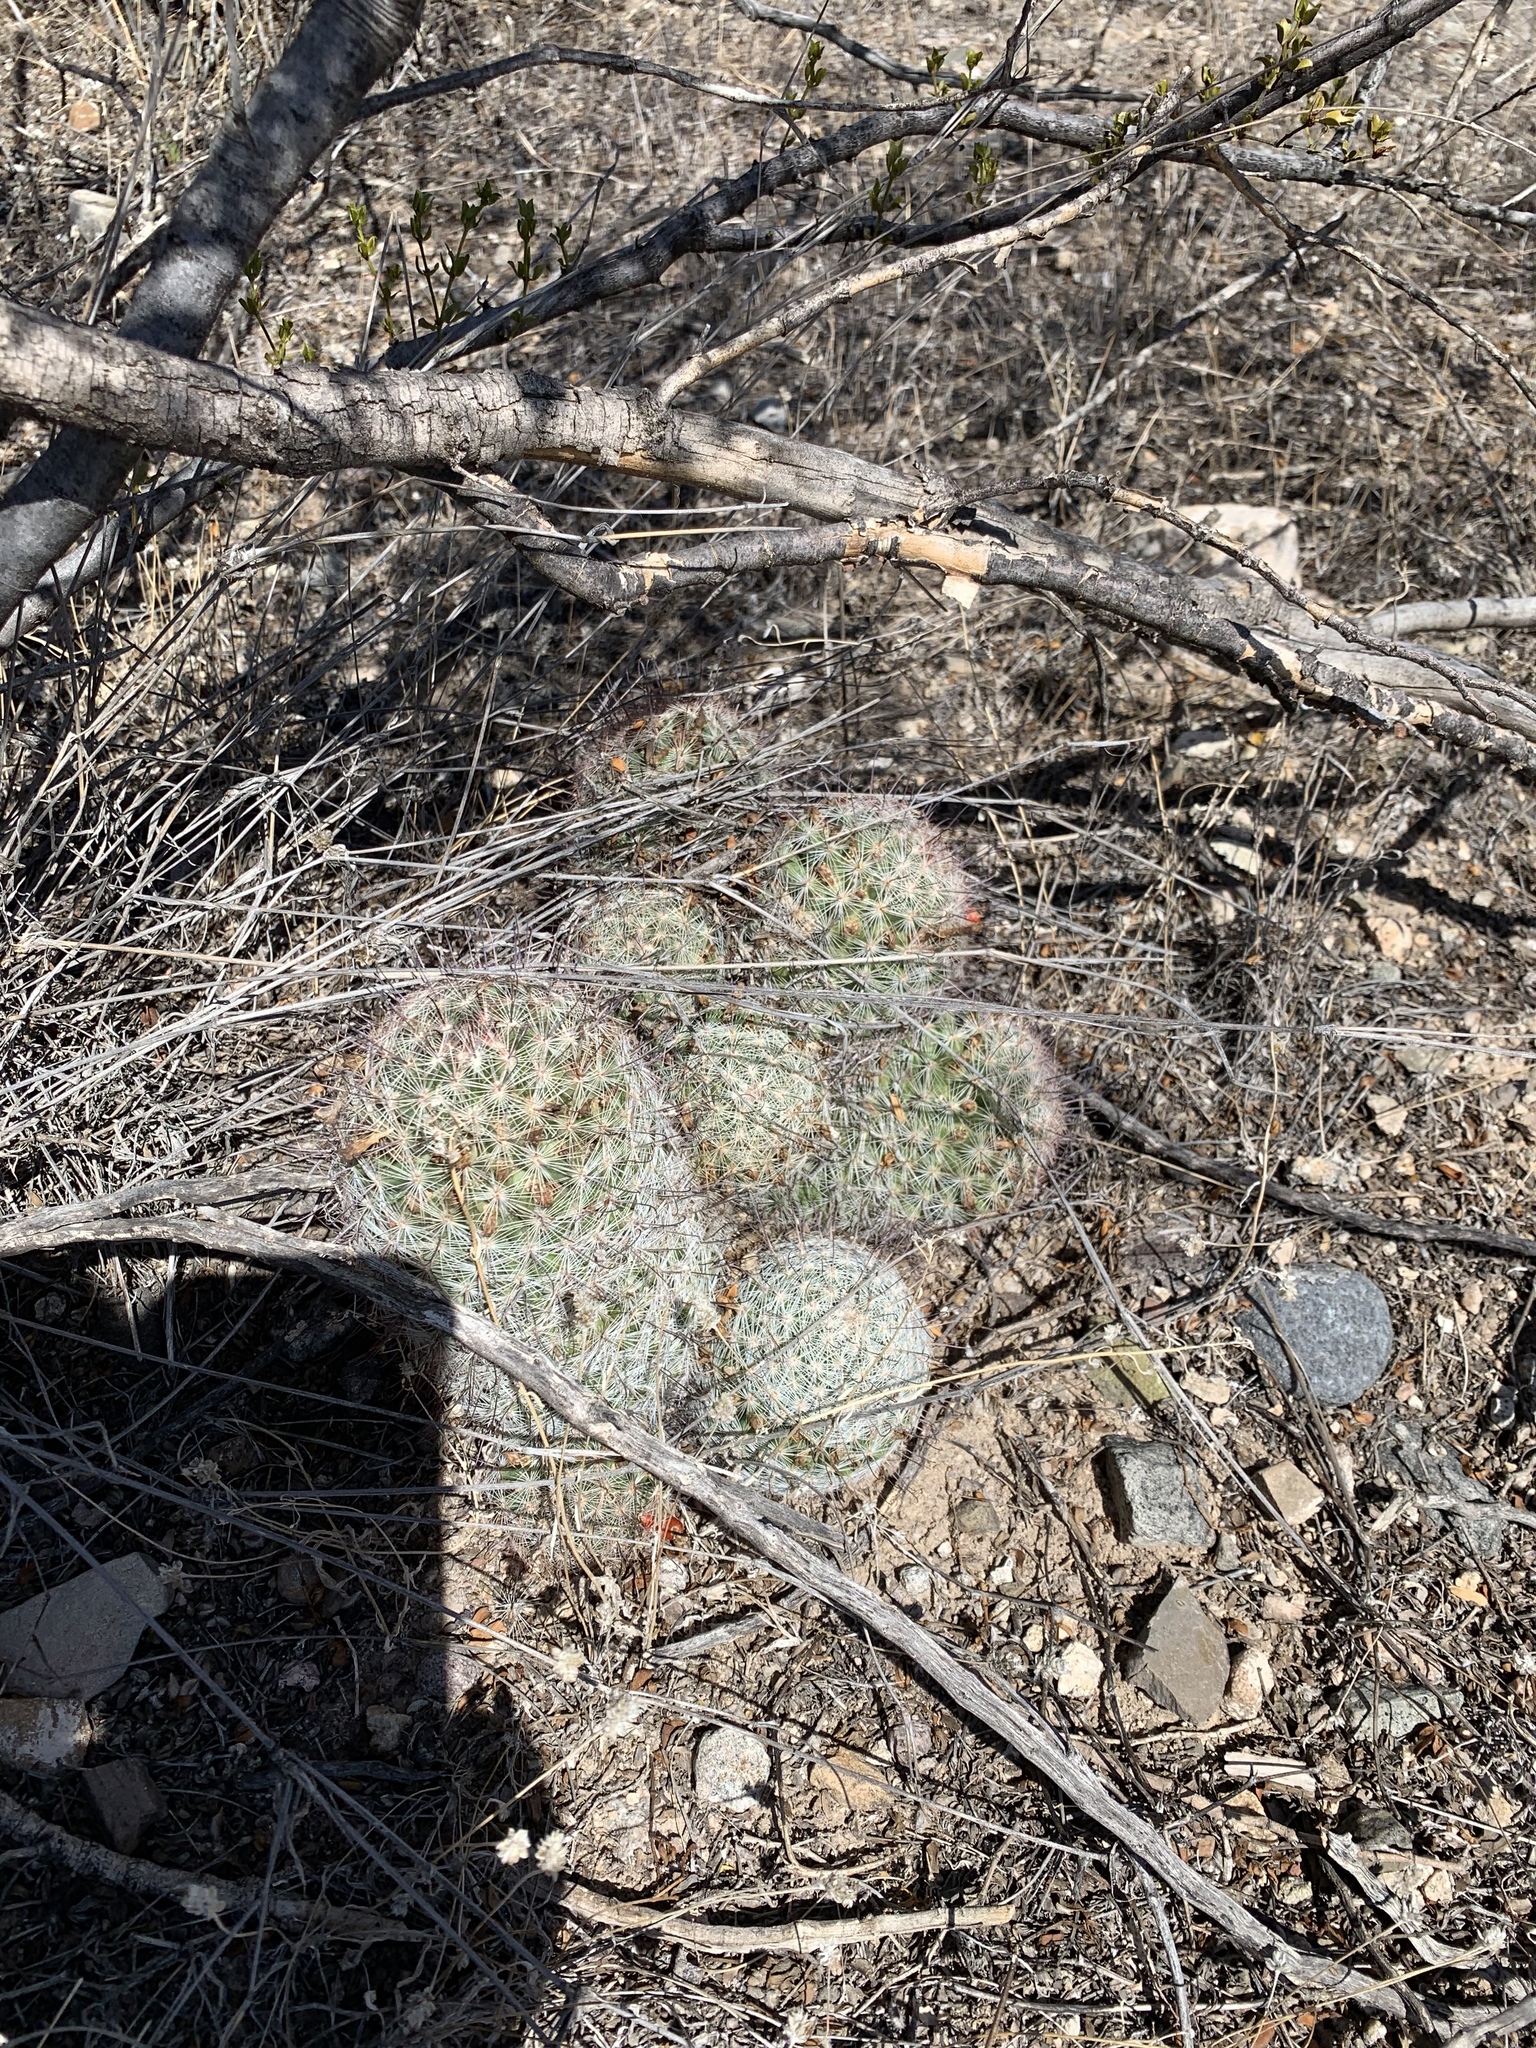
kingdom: Plantae
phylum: Tracheophyta
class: Magnoliopsida
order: Caryophyllales
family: Cactaceae
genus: Cochemiea
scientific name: Cochemiea grahamii
